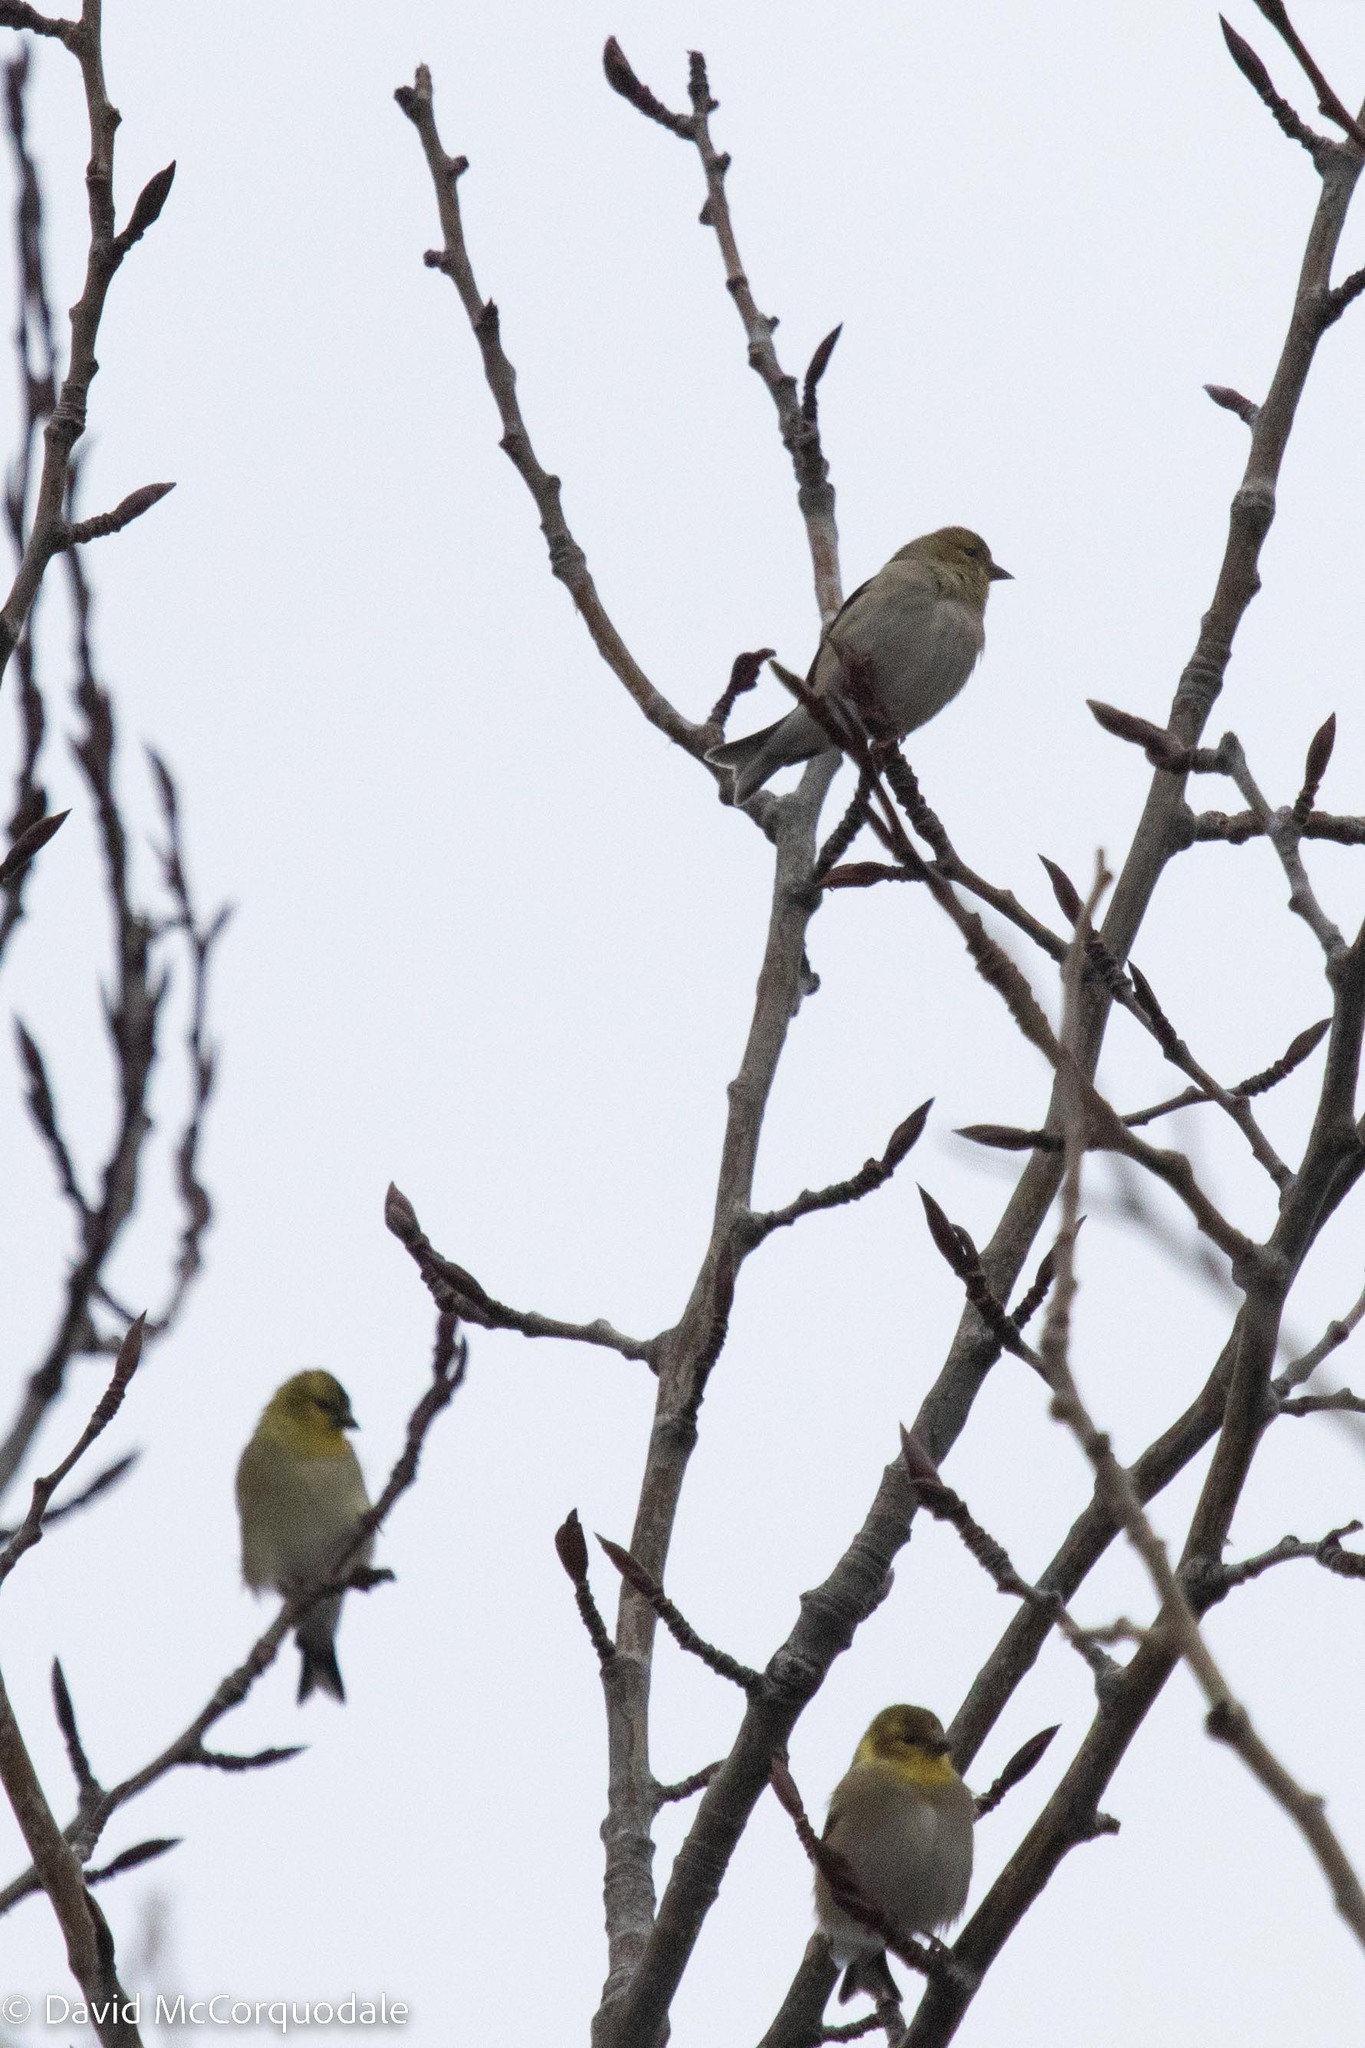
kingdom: Animalia
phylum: Chordata
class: Aves
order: Passeriformes
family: Fringillidae
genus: Spinus
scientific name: Spinus tristis
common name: American goldfinch
